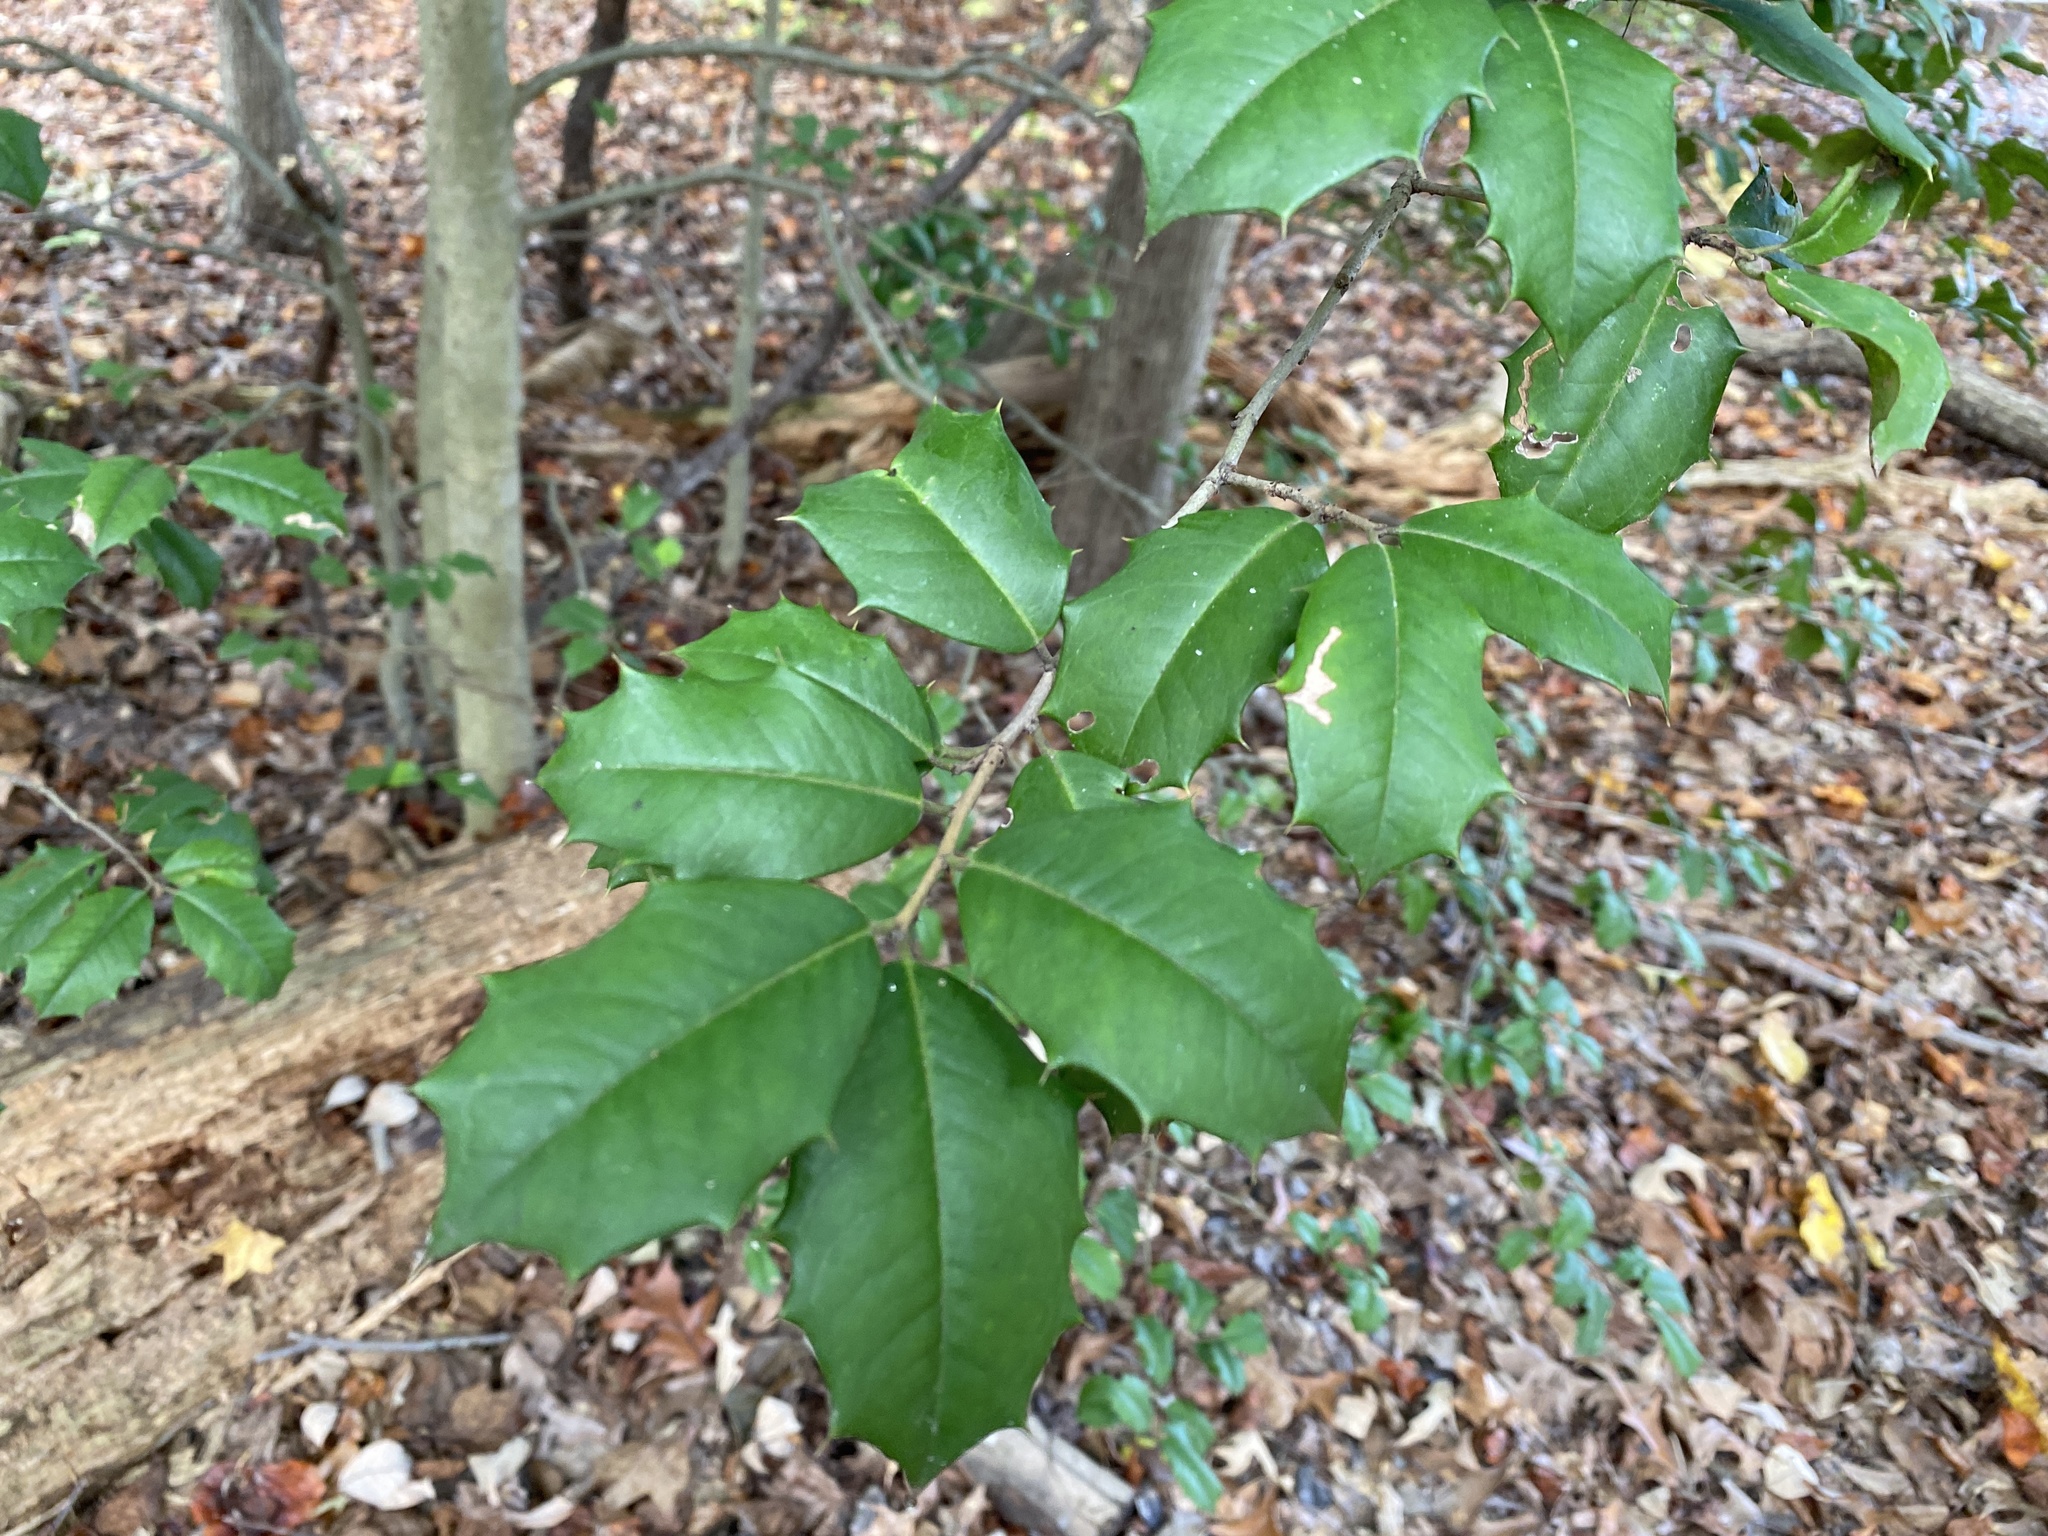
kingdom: Plantae
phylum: Tracheophyta
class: Magnoliopsida
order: Aquifoliales
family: Aquifoliaceae
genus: Ilex
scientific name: Ilex opaca
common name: American holly
